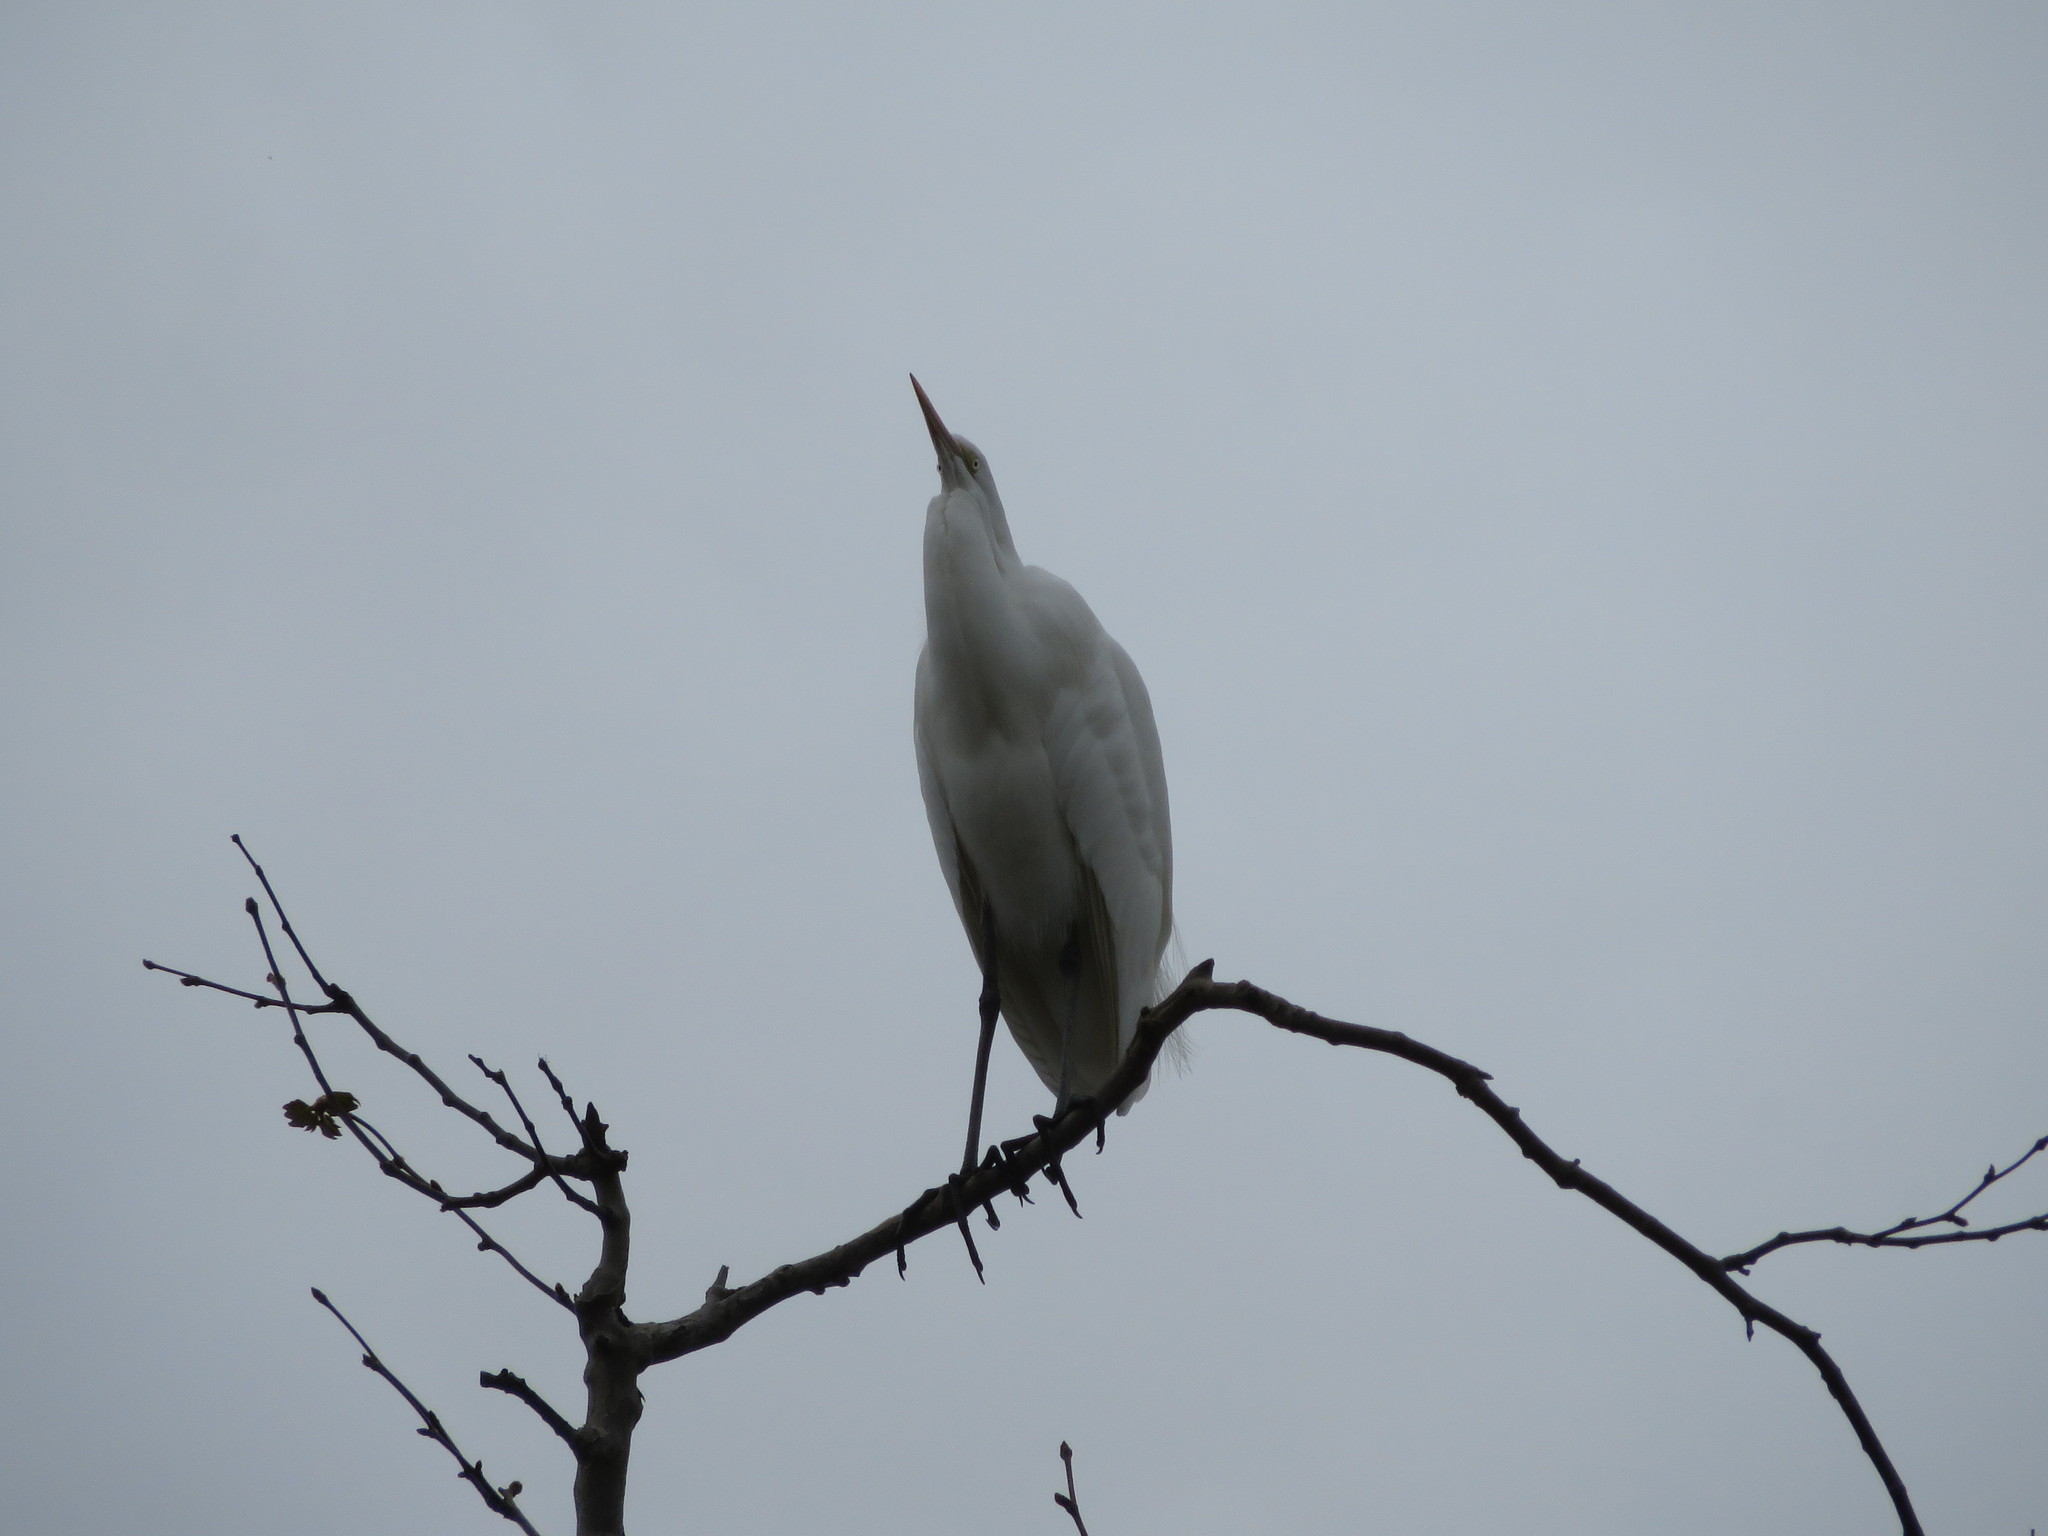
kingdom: Animalia
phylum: Chordata
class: Aves
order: Pelecaniformes
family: Ardeidae
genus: Ardea
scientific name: Ardea alba
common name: Great egret
